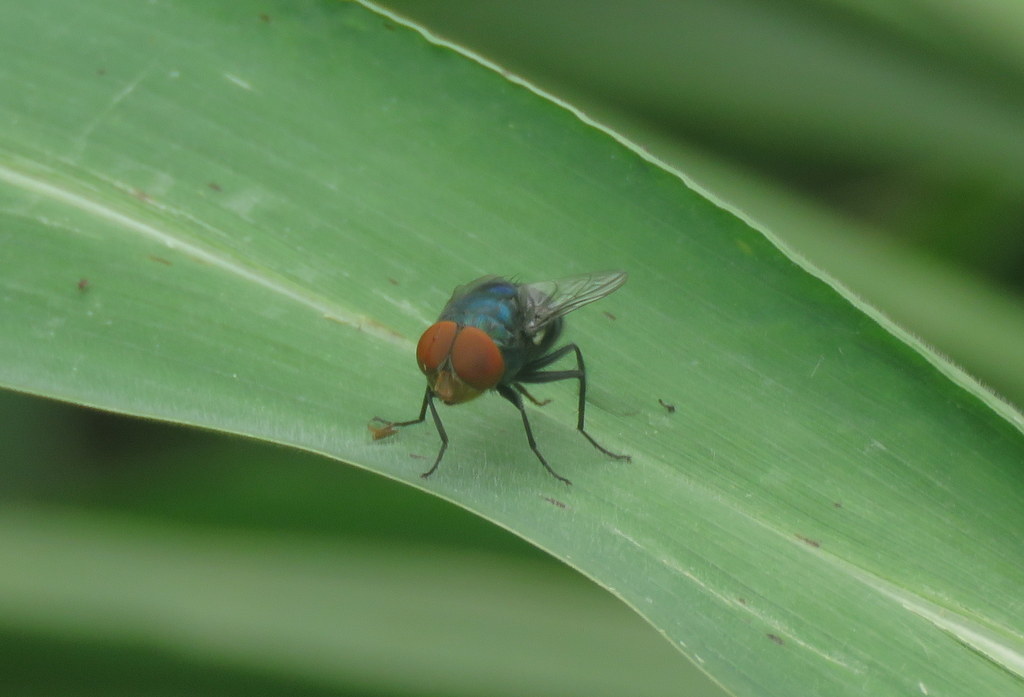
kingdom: Animalia
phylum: Arthropoda
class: Insecta
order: Diptera
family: Calliphoridae
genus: Chrysomya
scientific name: Chrysomya megacephala
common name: Blow fly
